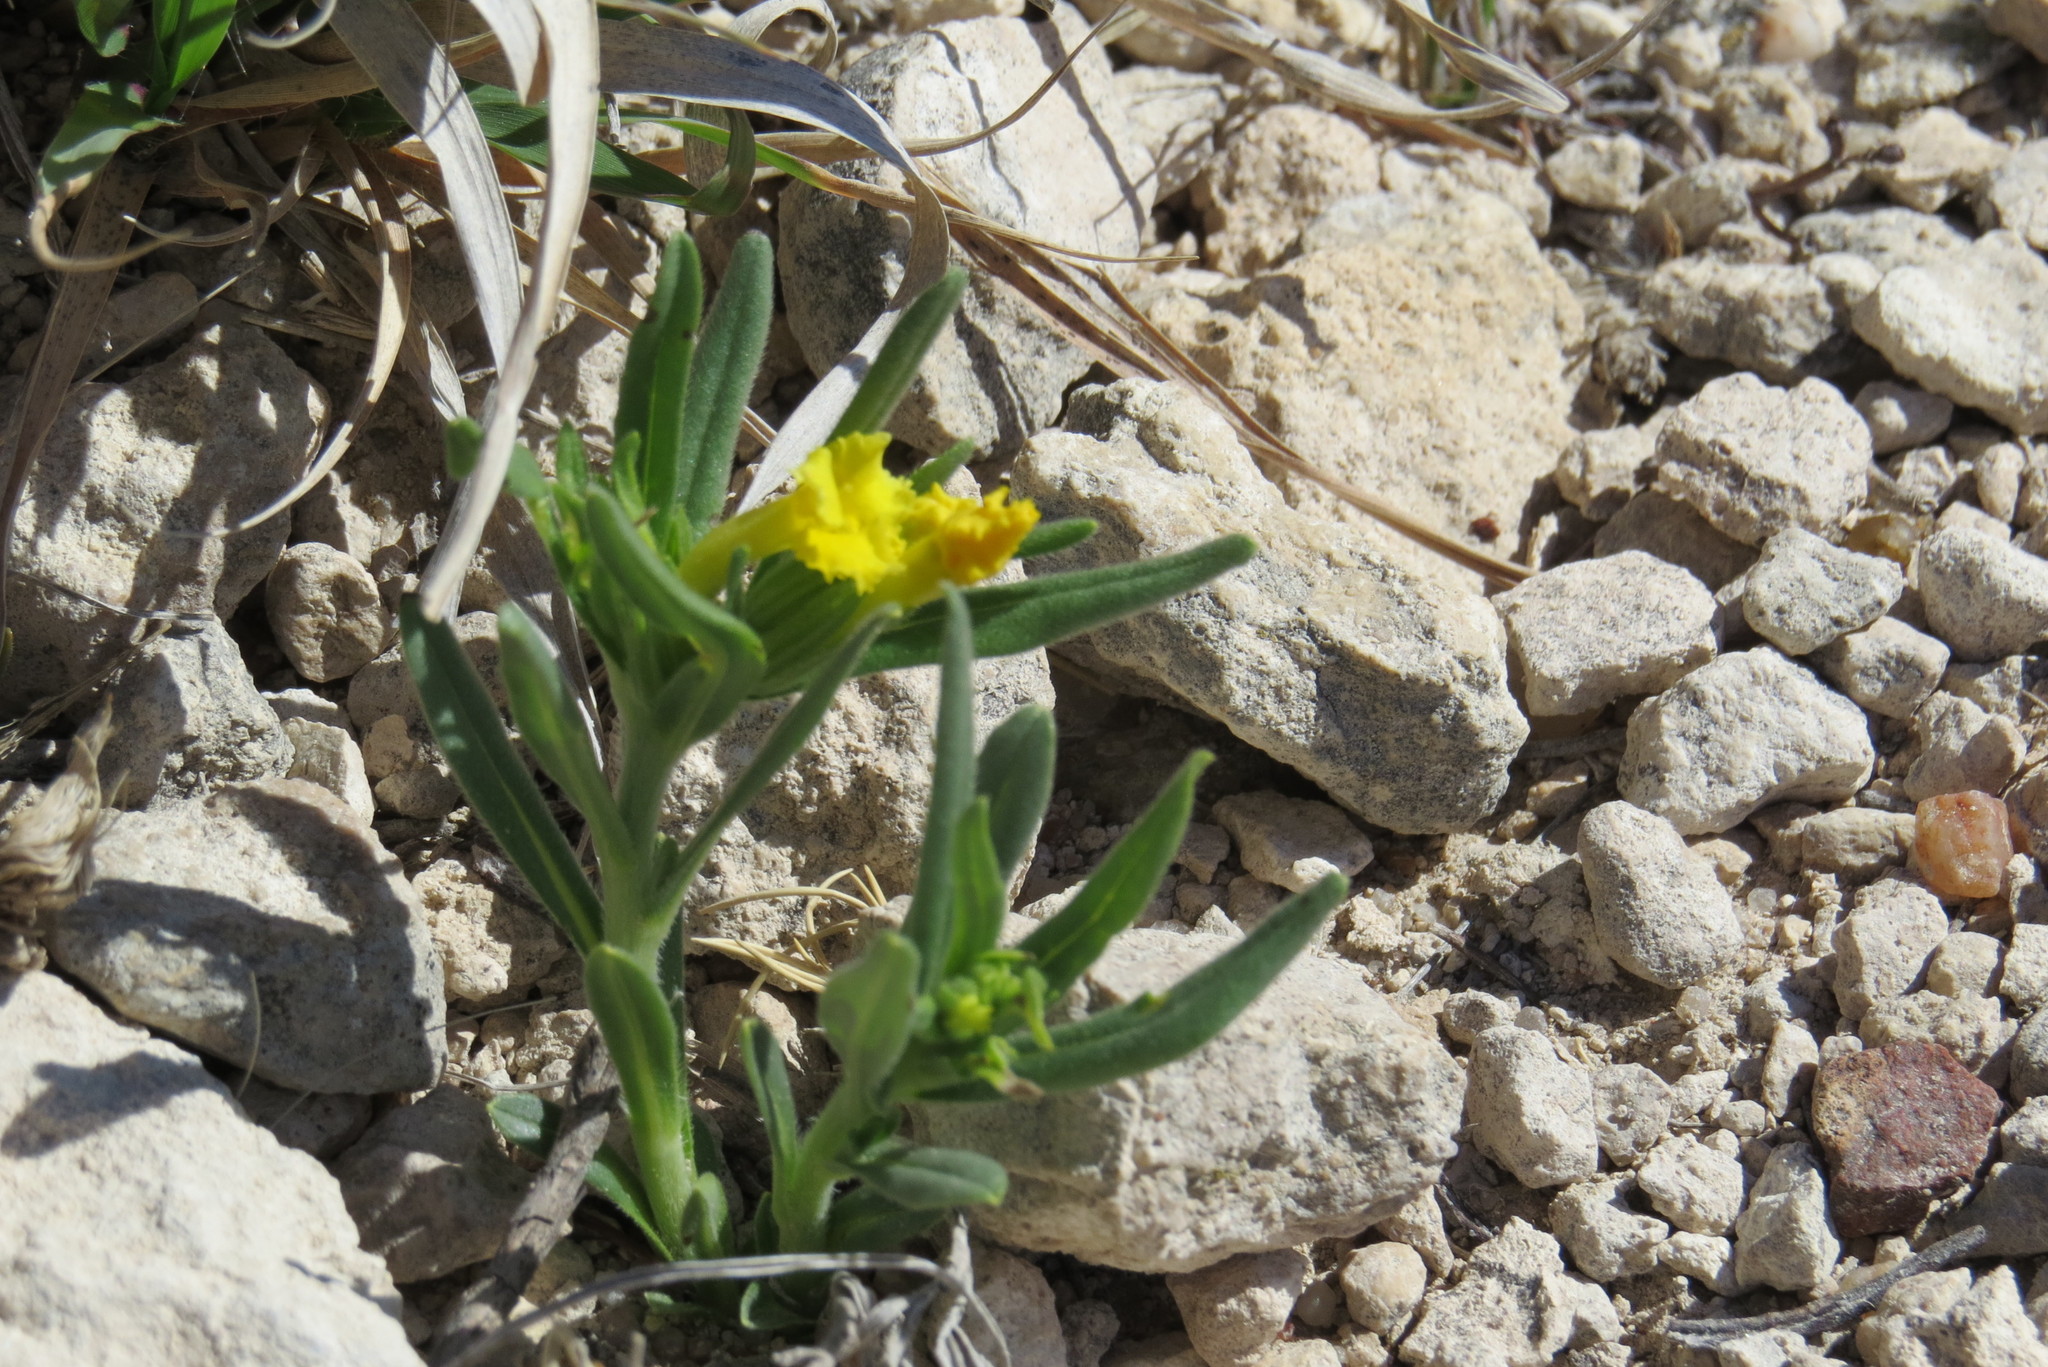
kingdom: Plantae
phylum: Tracheophyta
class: Magnoliopsida
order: Boraginales
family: Boraginaceae
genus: Lithospermum
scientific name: Lithospermum incisum
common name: Fringed gromwell
